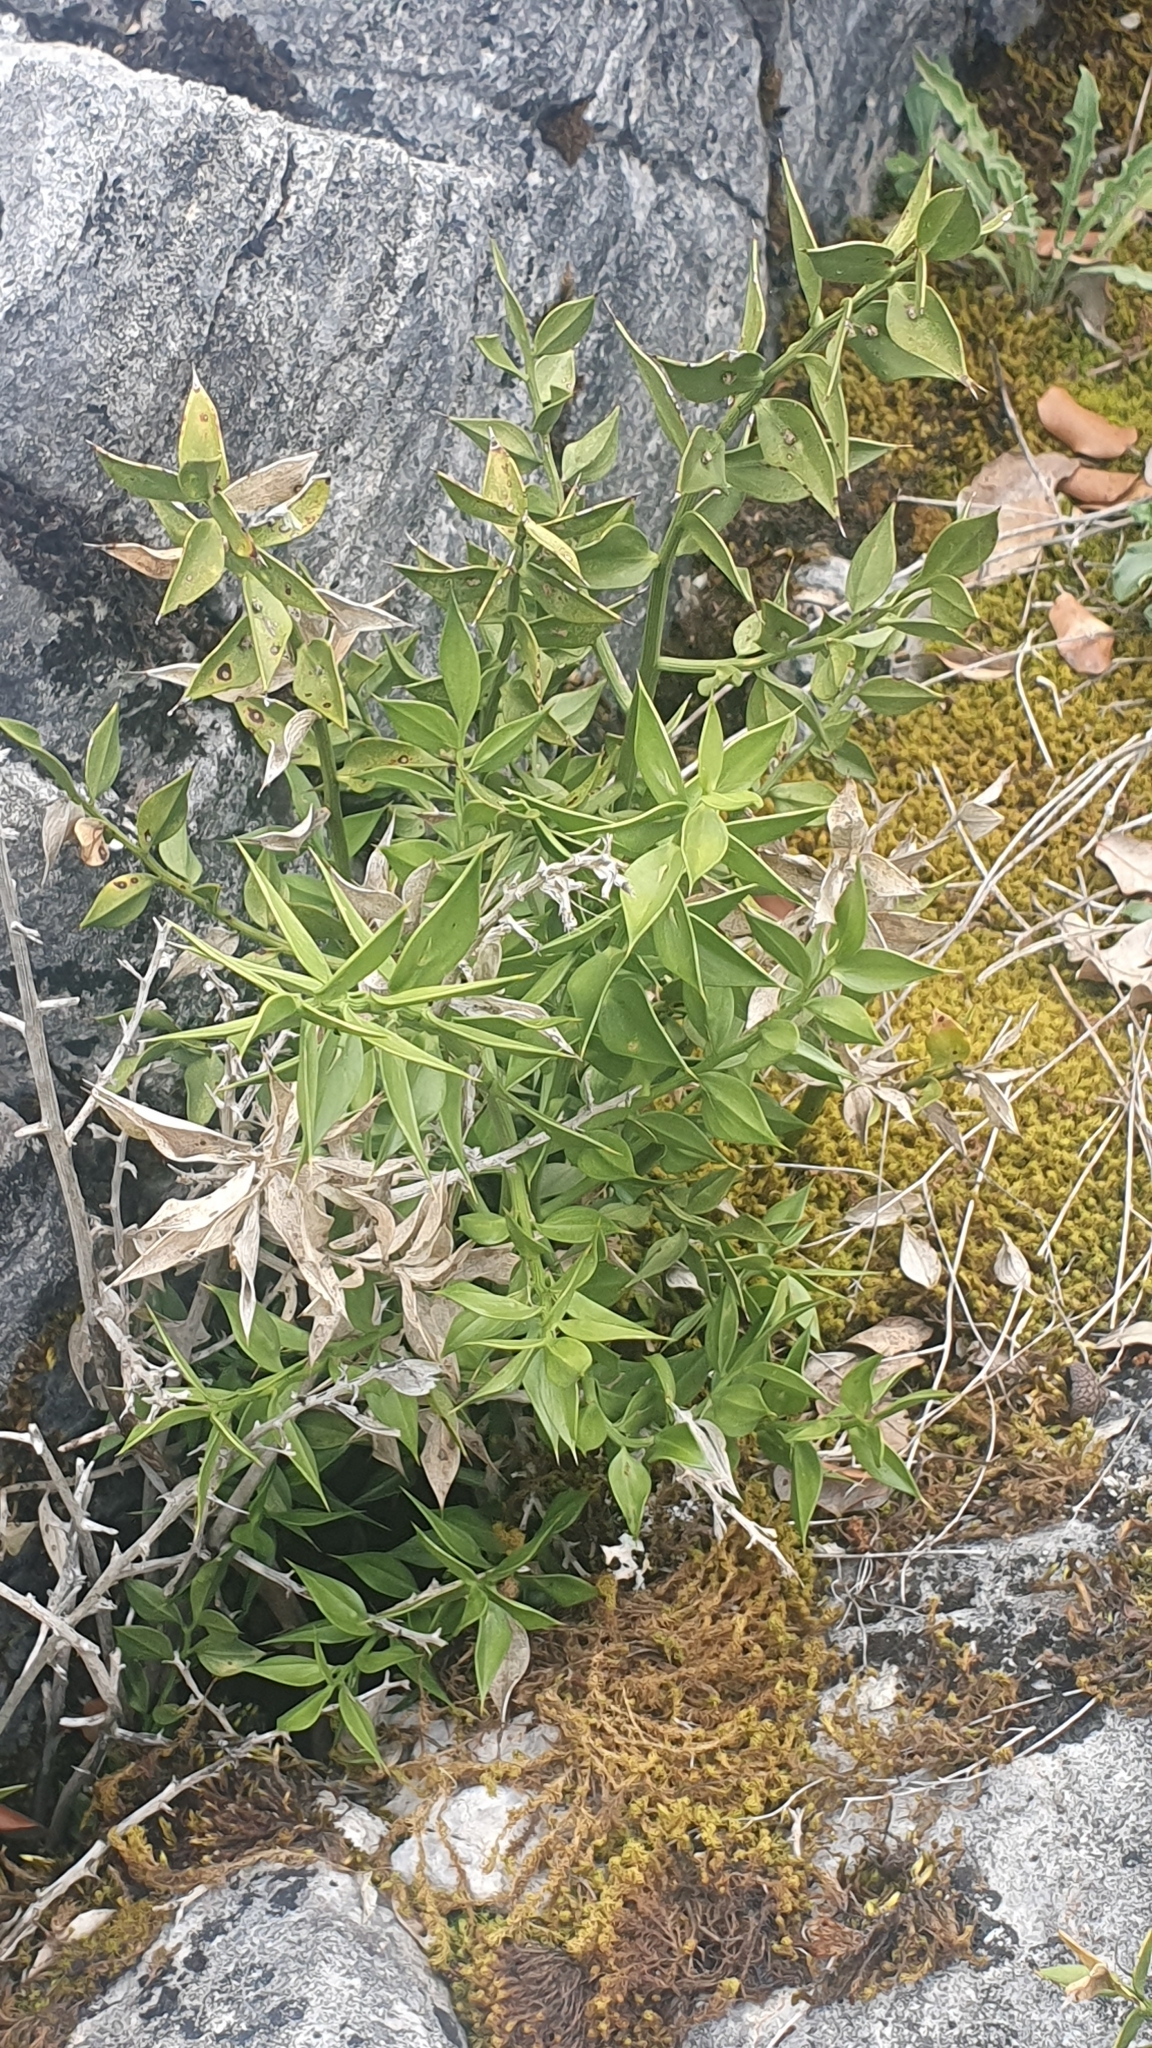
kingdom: Plantae
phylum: Tracheophyta
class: Liliopsida
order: Asparagales
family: Asparagaceae
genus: Ruscus
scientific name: Ruscus aculeatus
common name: Butcher's-broom
